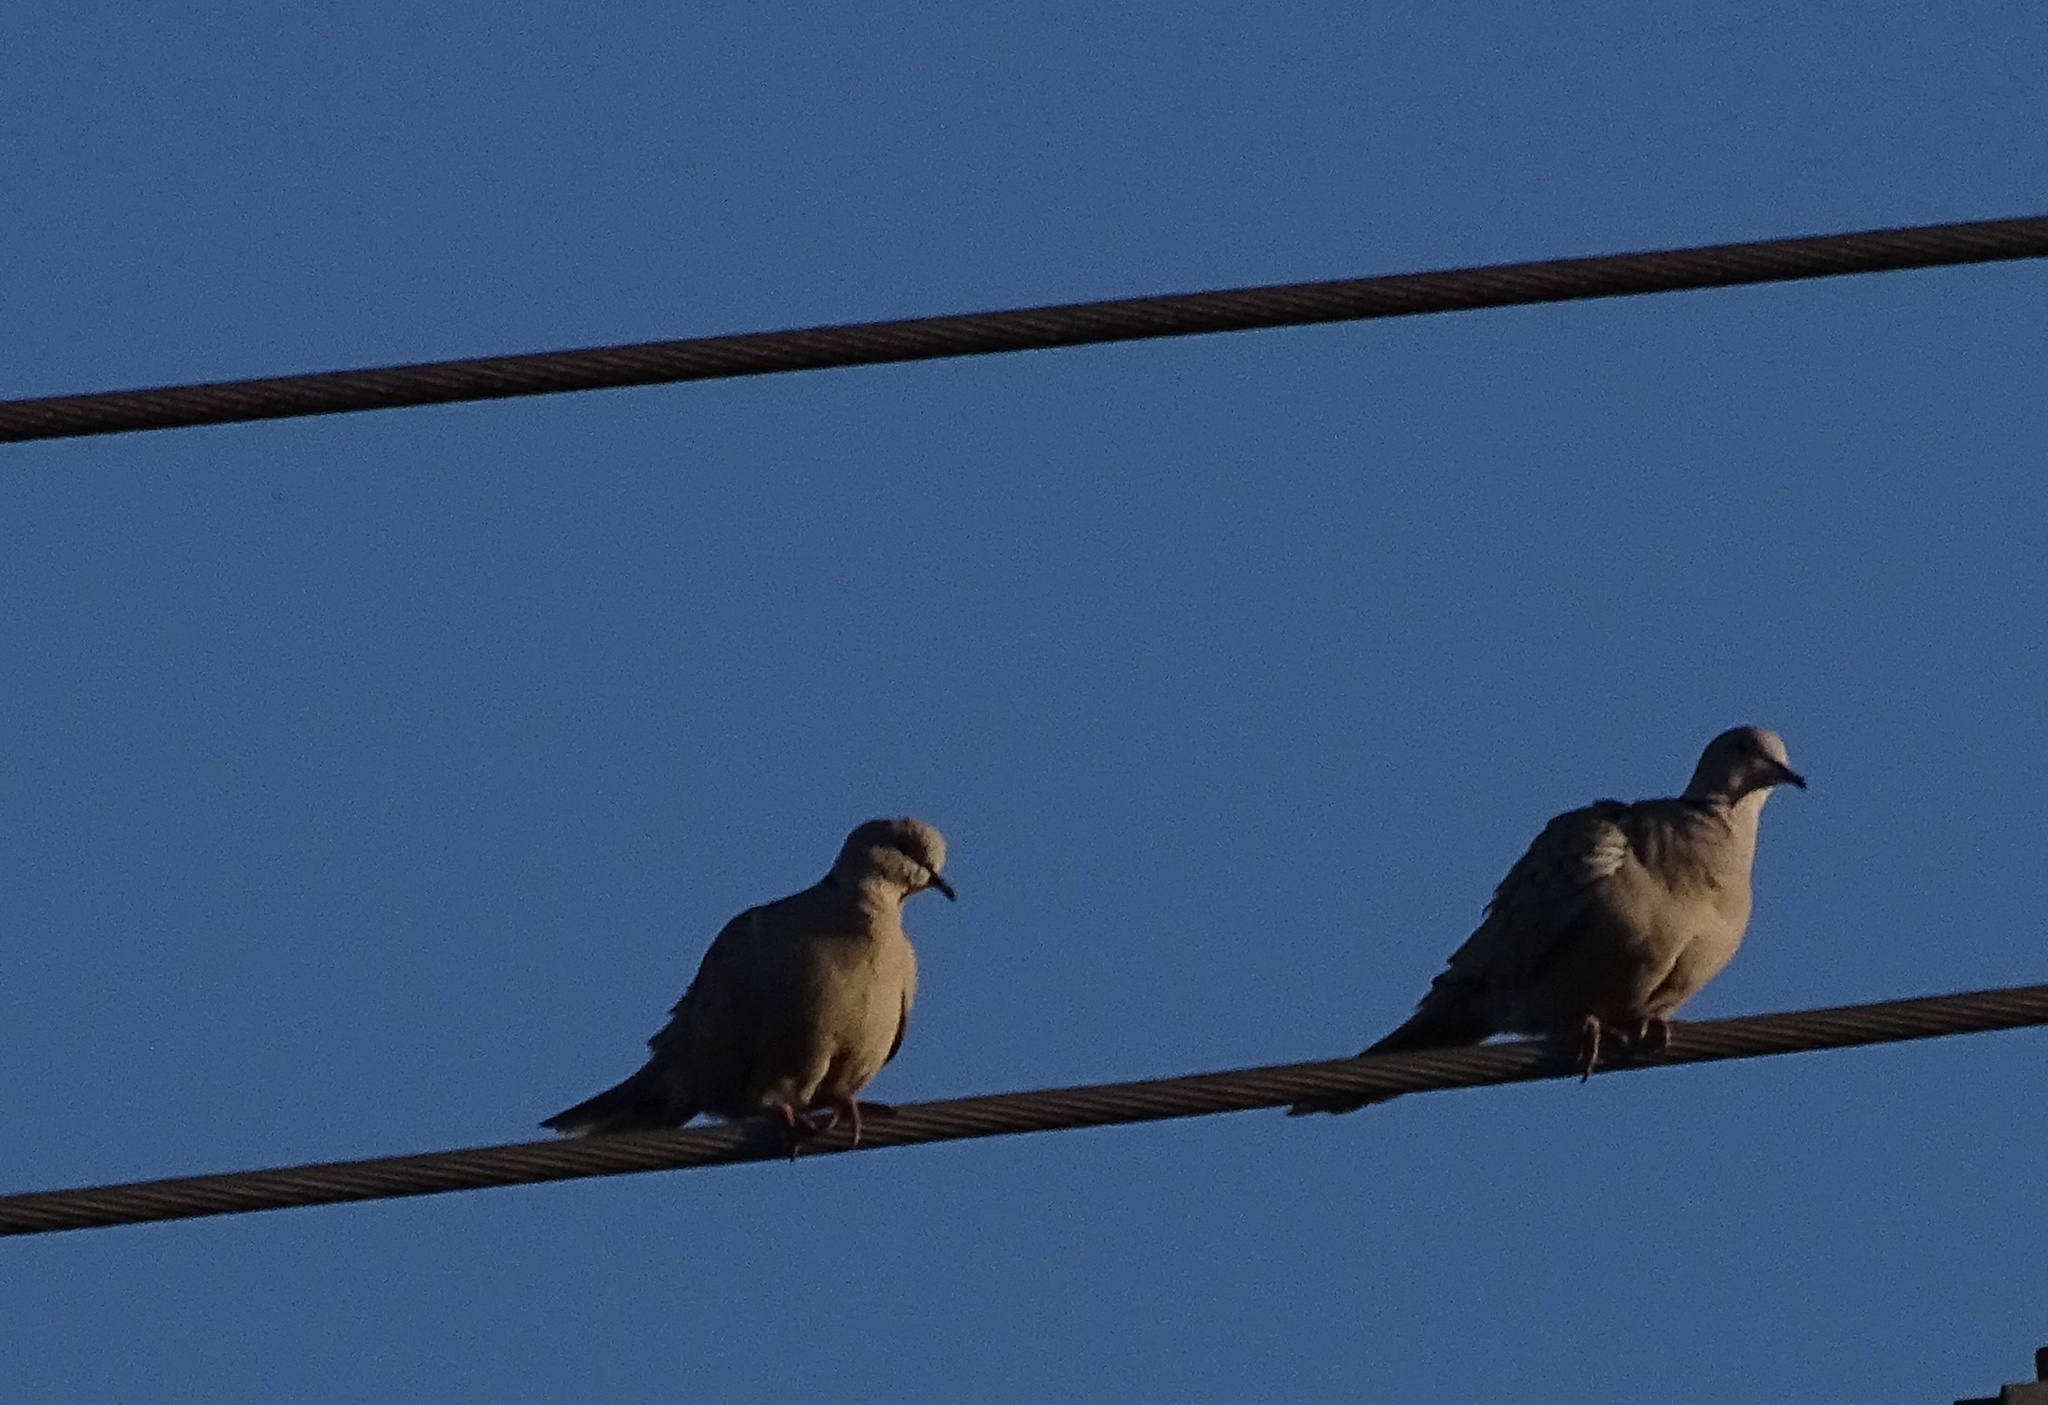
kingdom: Animalia
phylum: Chordata
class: Aves
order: Columbiformes
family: Columbidae
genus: Streptopelia
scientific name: Streptopelia decaocto
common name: Eurasian collared dove
